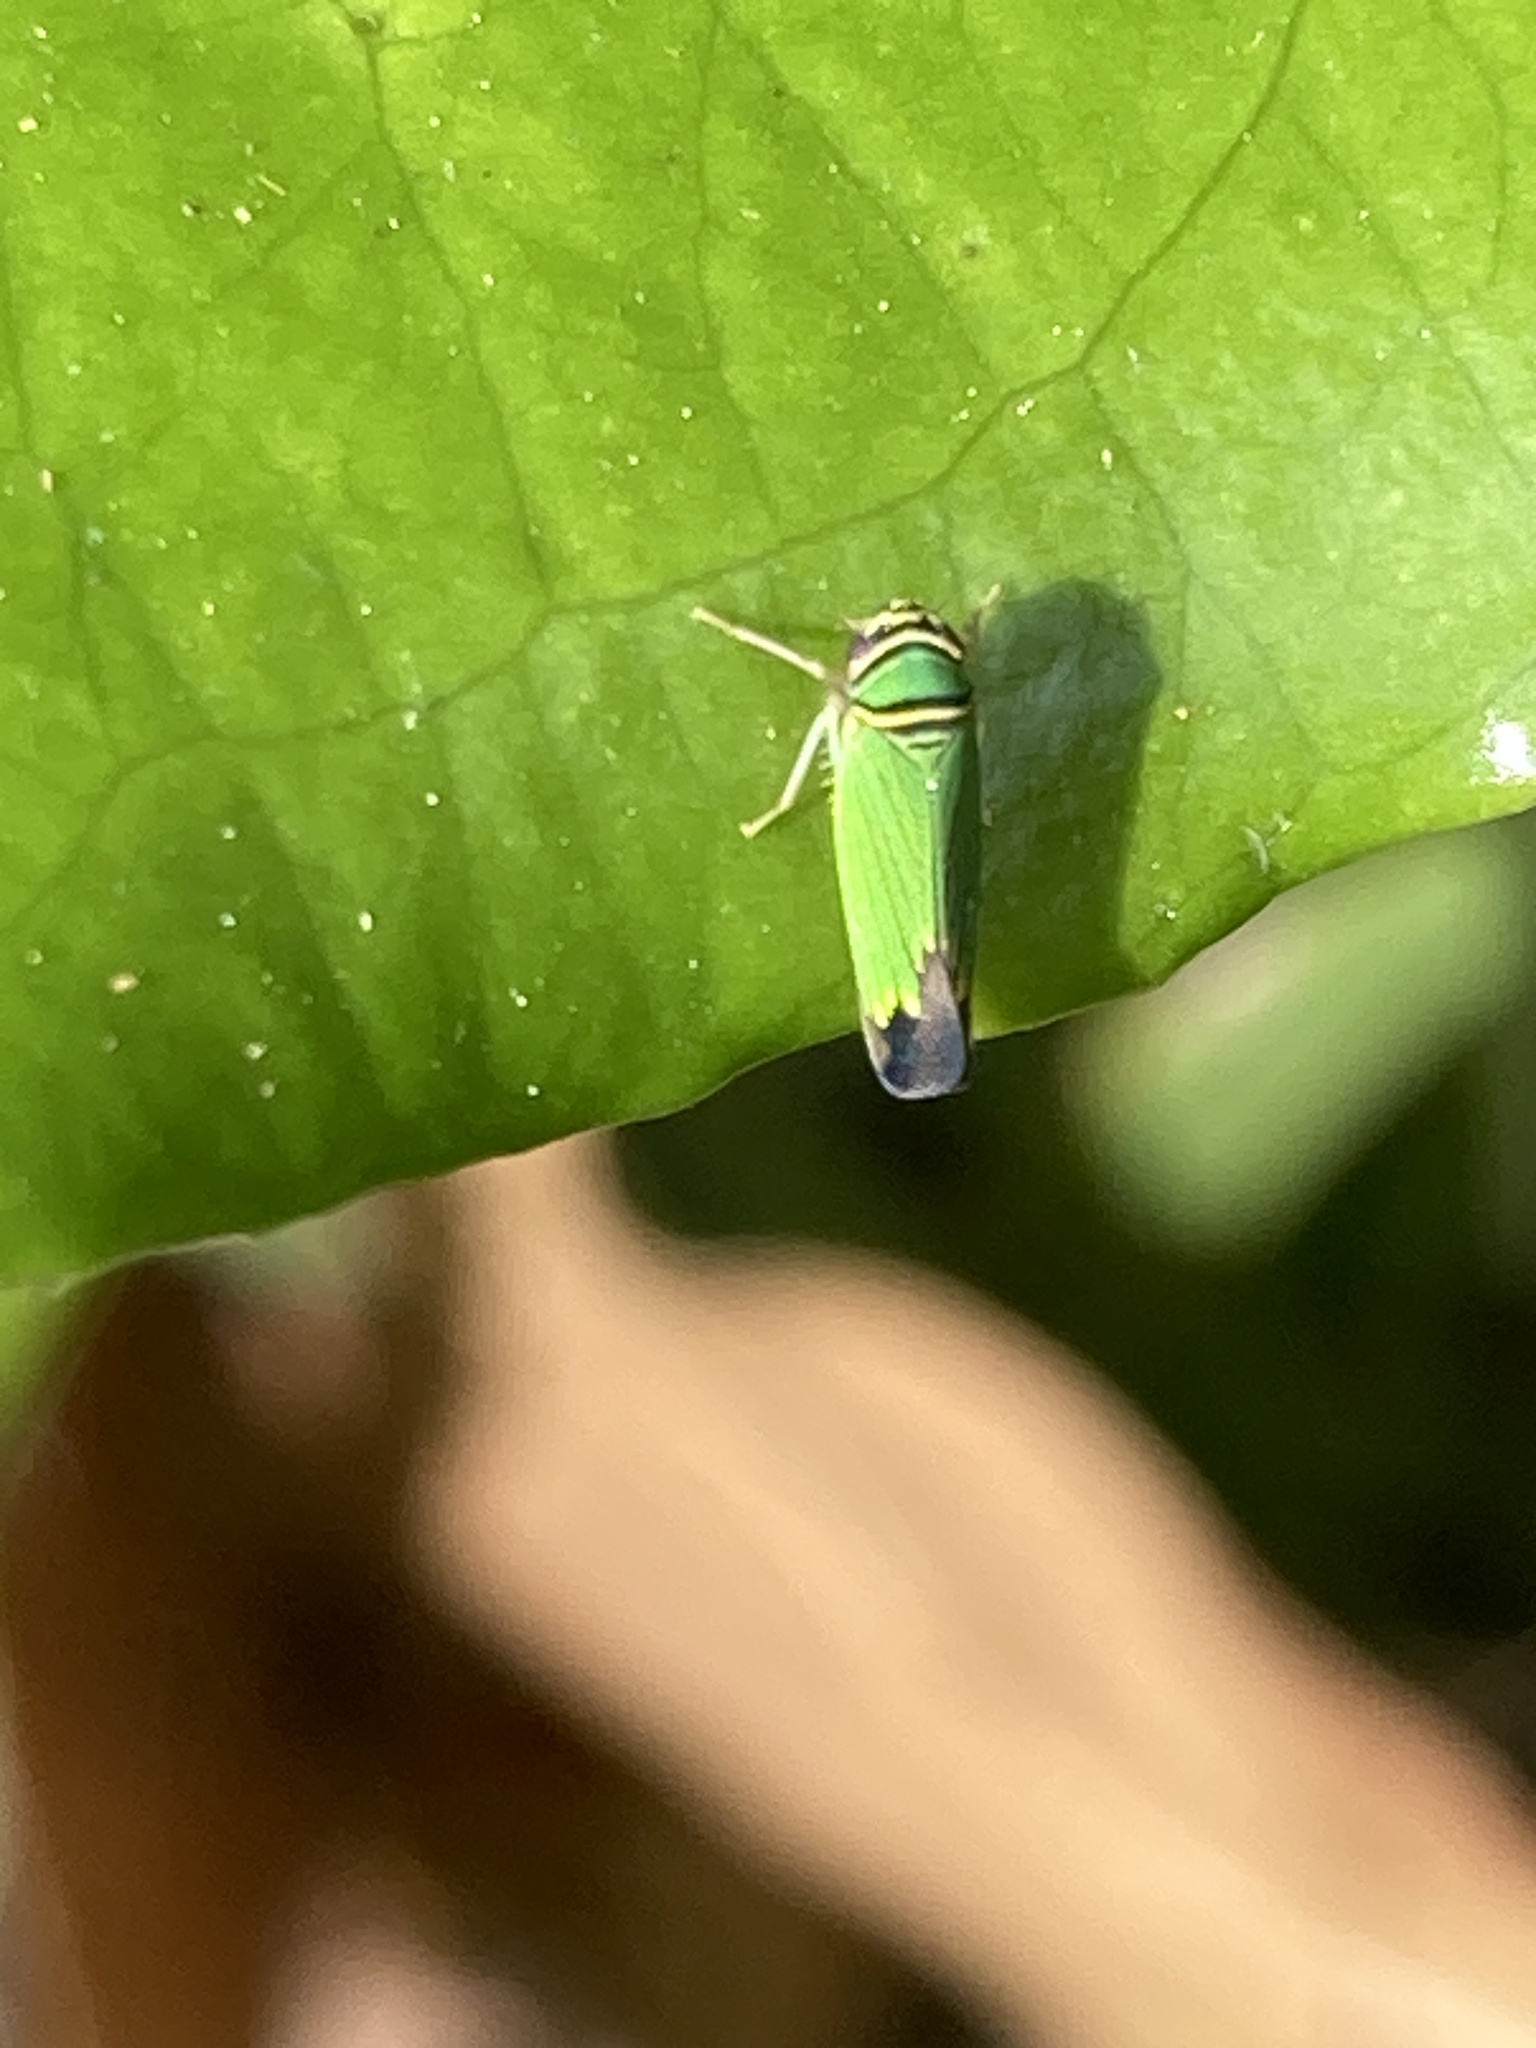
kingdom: Animalia
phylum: Arthropoda
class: Insecta
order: Hemiptera
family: Cicadellidae
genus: Tylozygus
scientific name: Tylozygus geometricus
